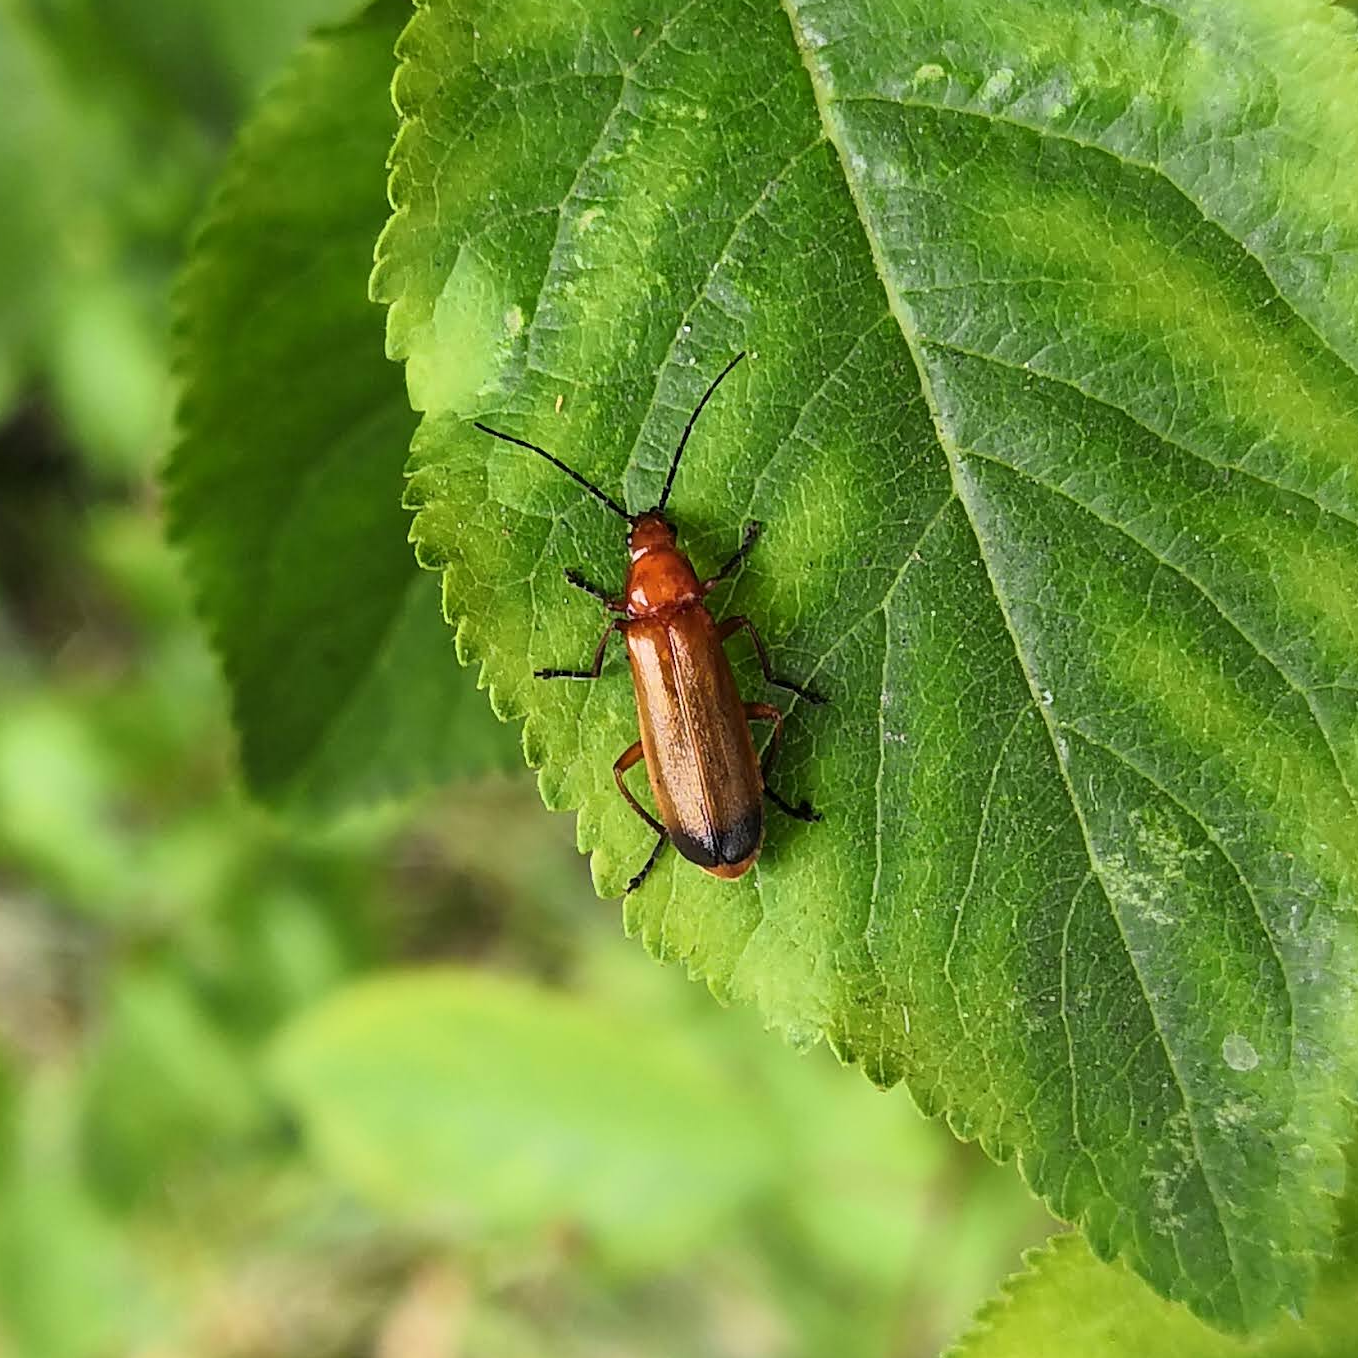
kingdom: Animalia
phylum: Arthropoda
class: Insecta
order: Coleoptera
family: Cantharidae
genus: Rhagonycha
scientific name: Rhagonycha fulva
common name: Common red soldier beetle
